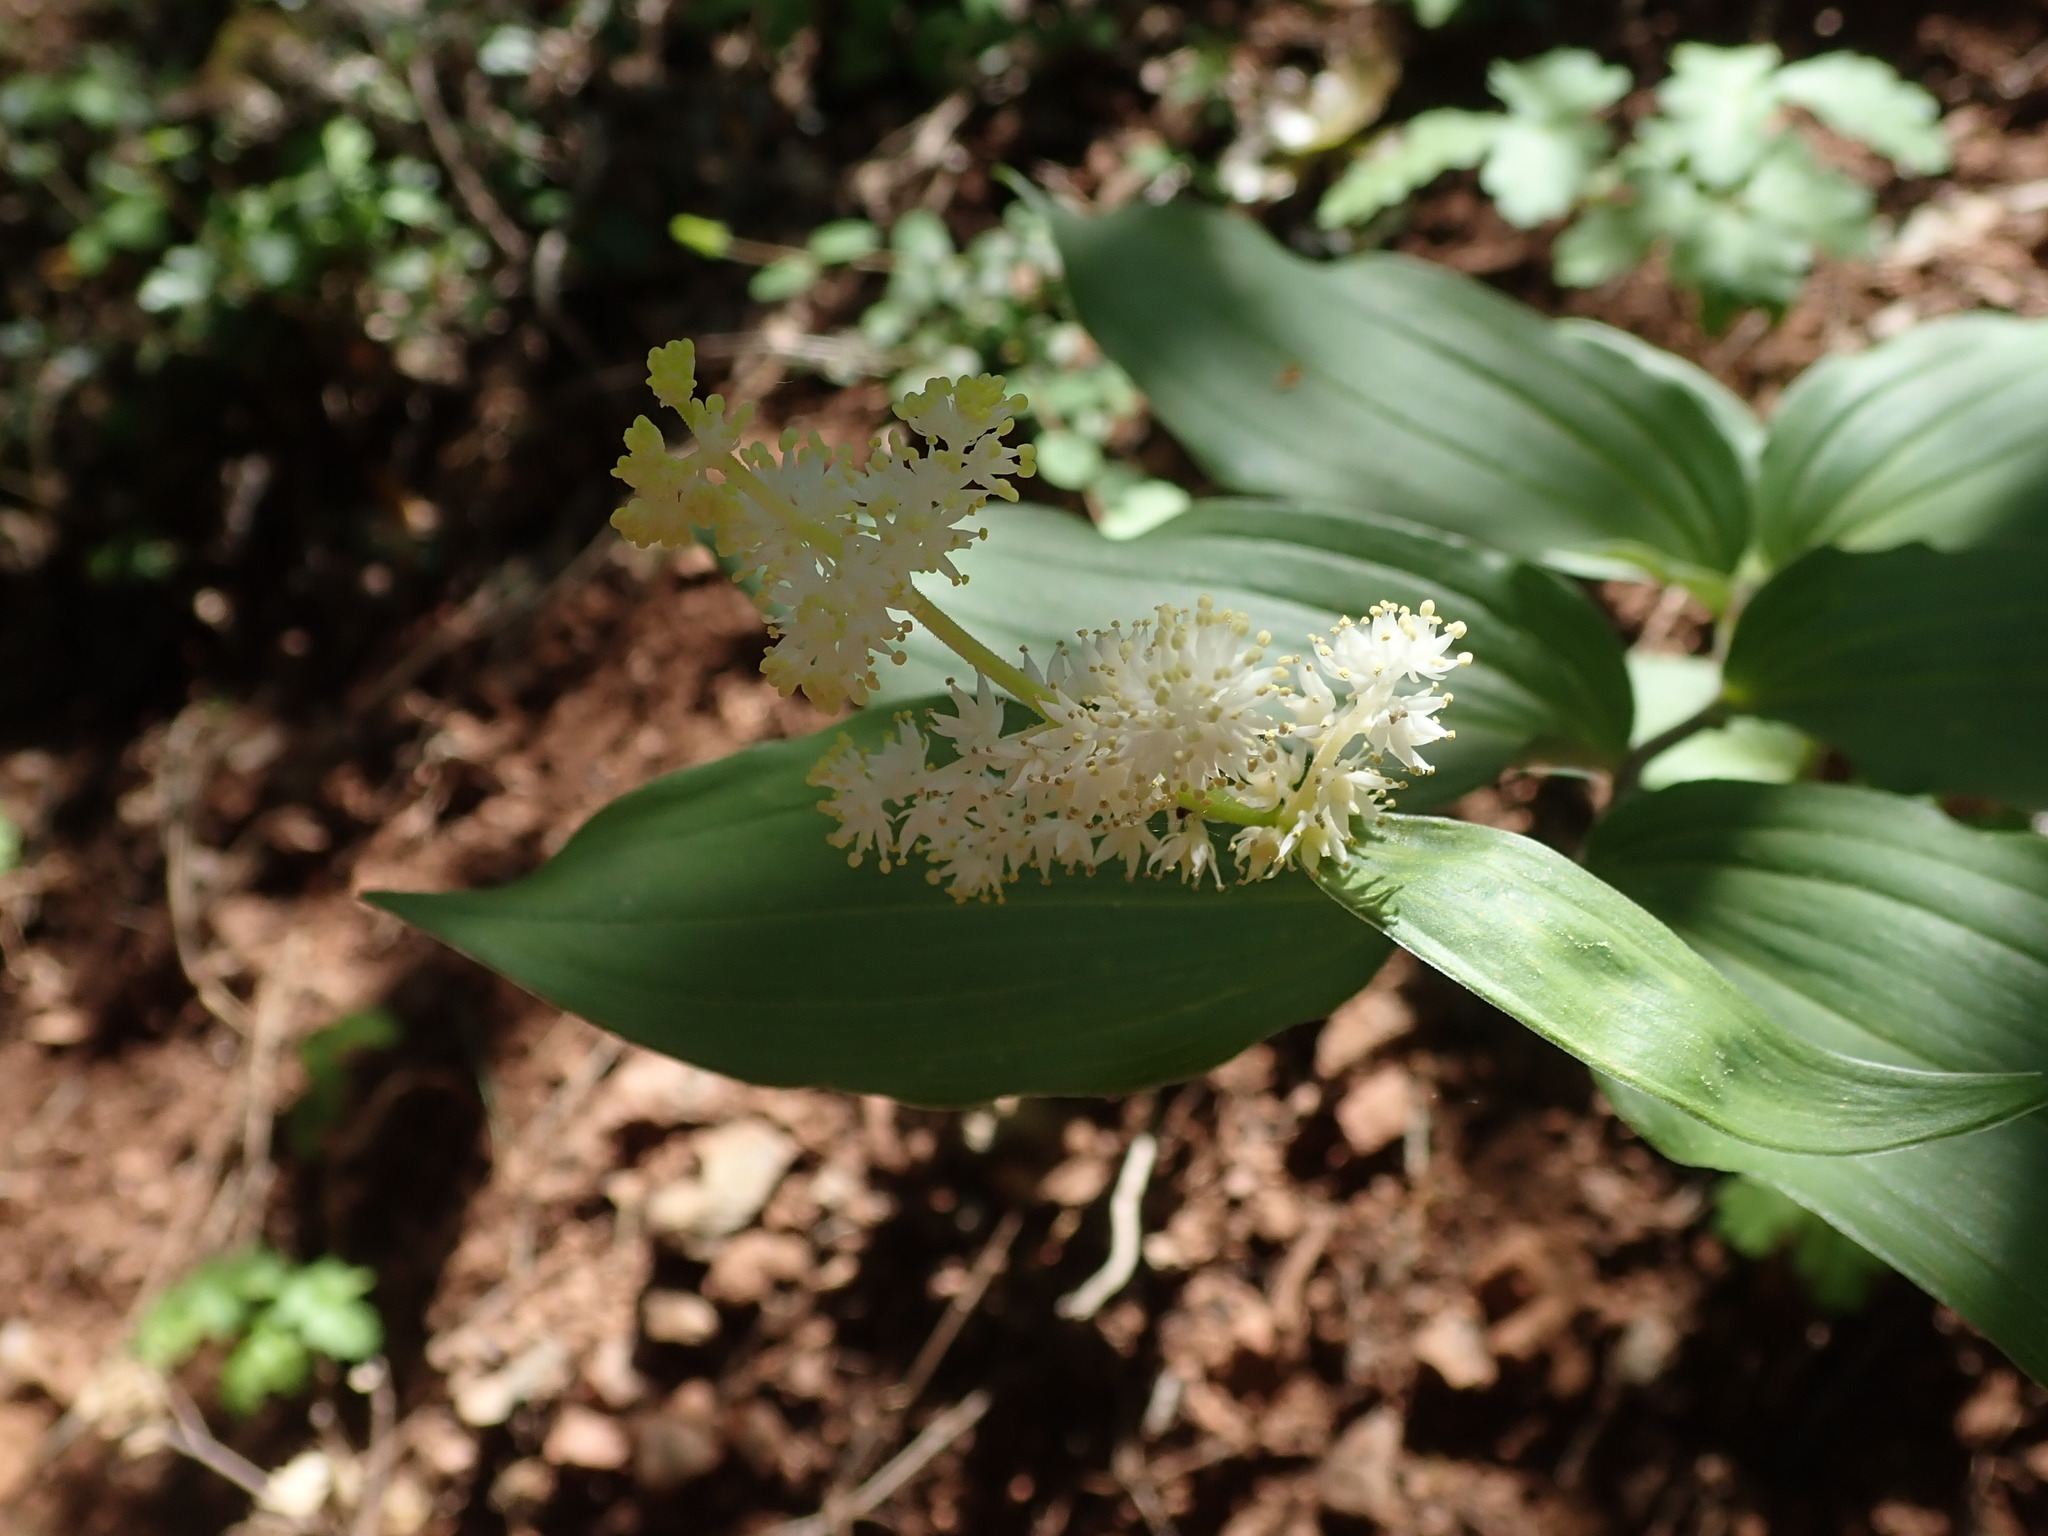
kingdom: Plantae
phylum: Tracheophyta
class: Liliopsida
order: Asparagales
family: Asparagaceae
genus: Maianthemum
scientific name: Maianthemum racemosum
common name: False spikenard
